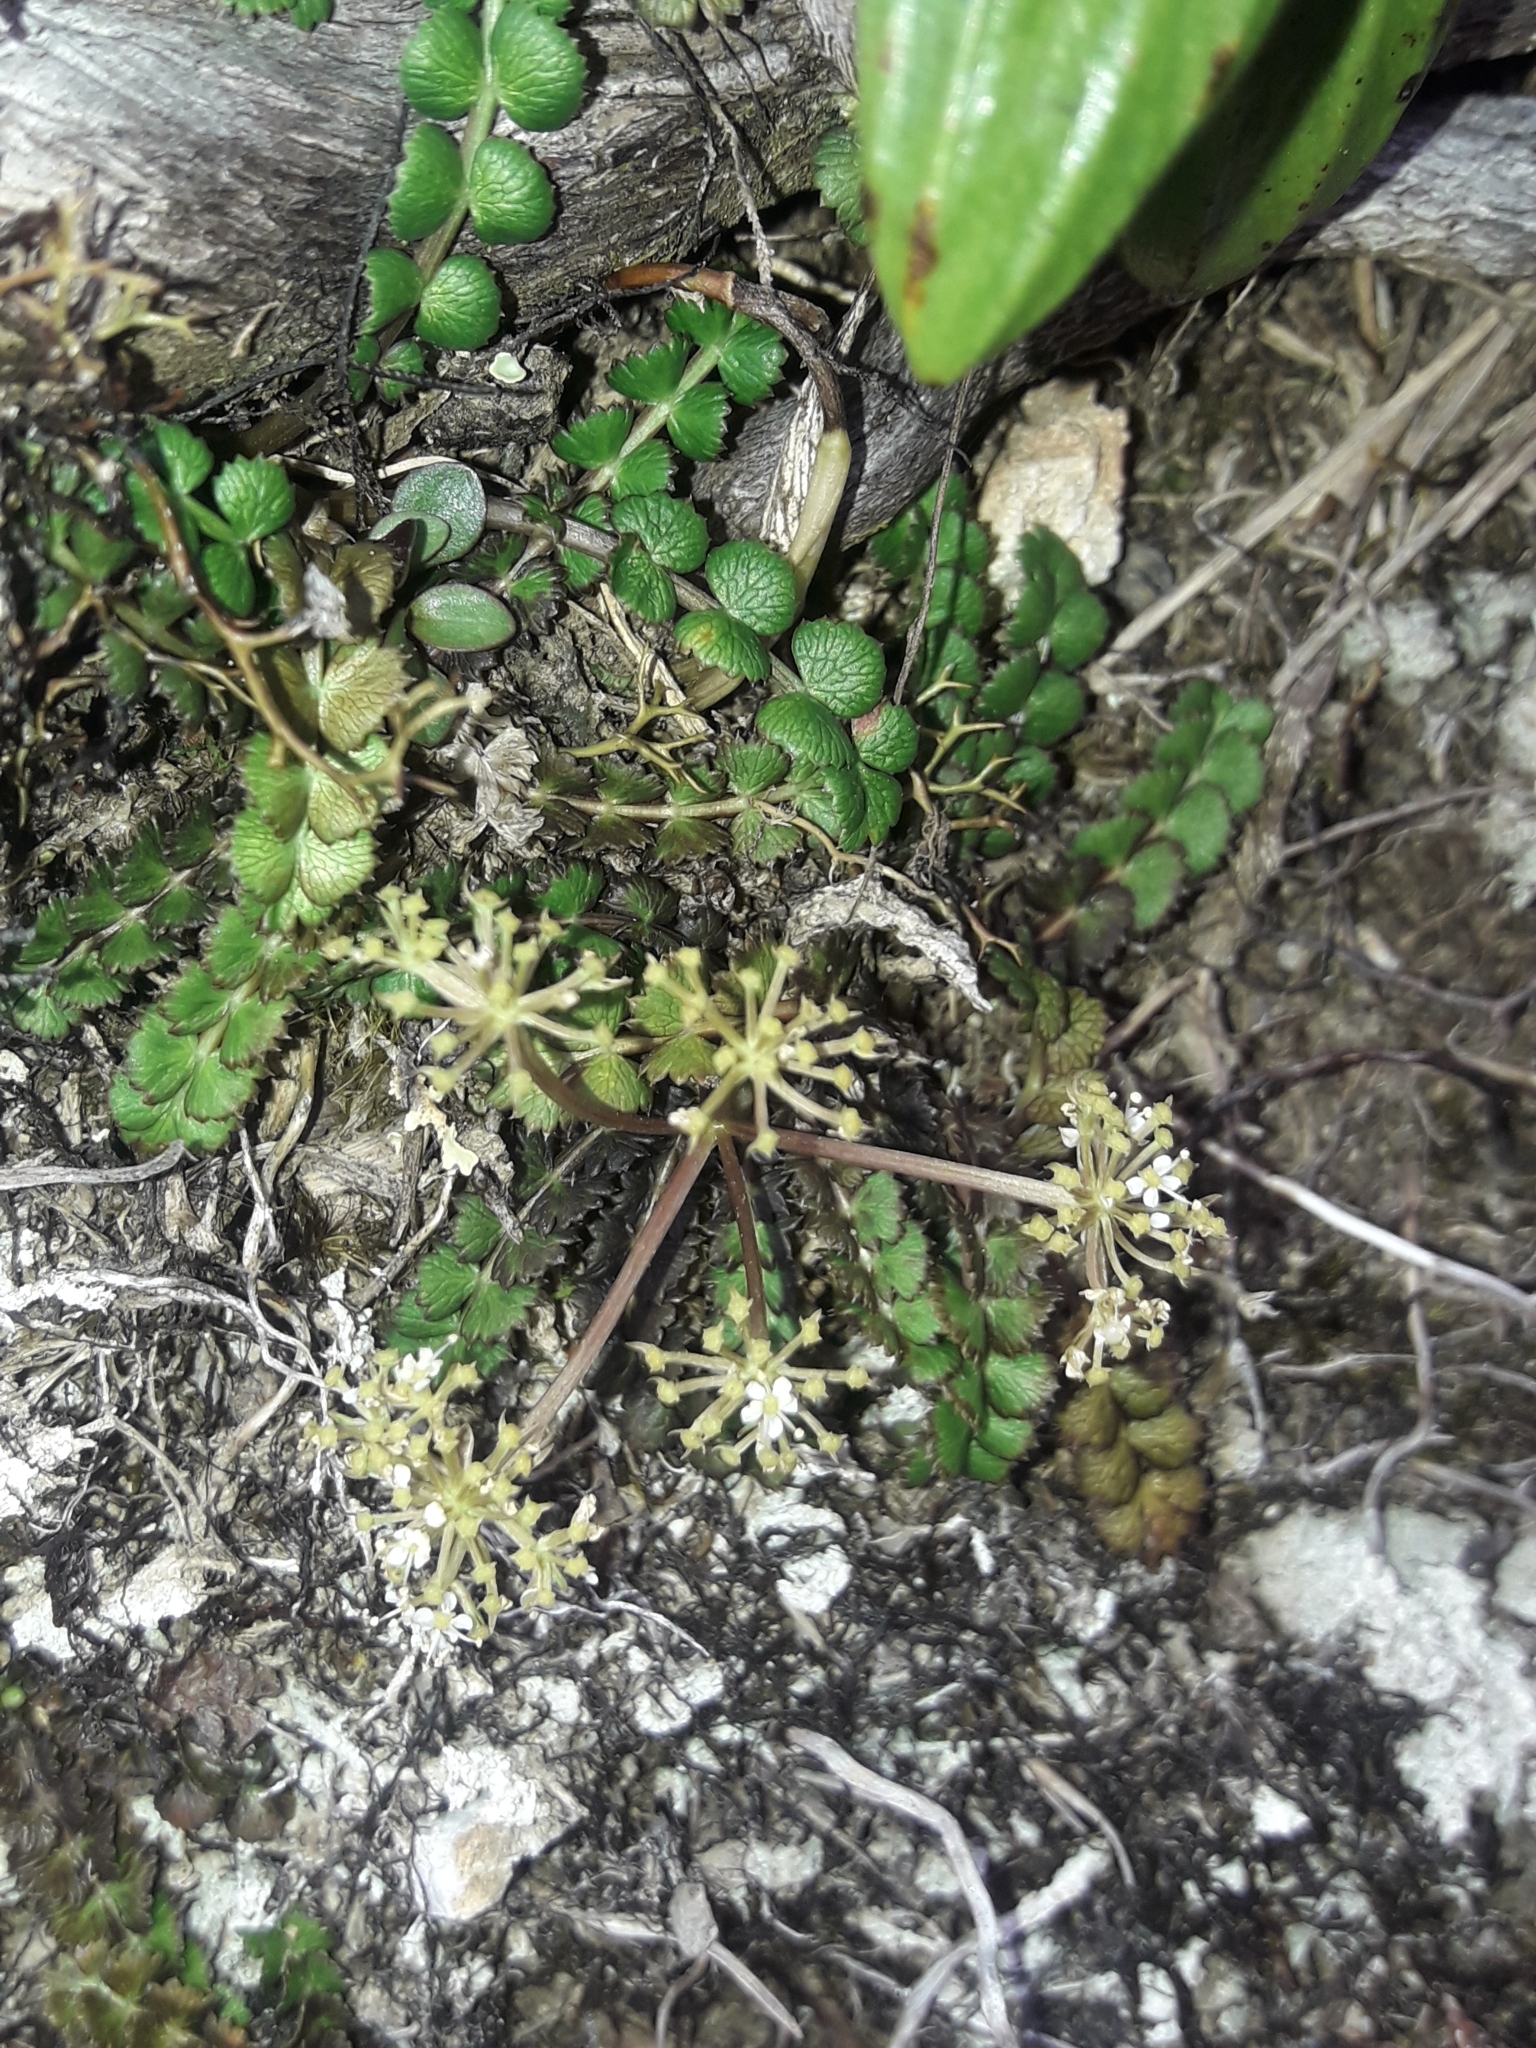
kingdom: Plantae
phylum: Tracheophyta
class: Magnoliopsida
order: Apiales
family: Apiaceae
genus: Anisotome
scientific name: Anisotome aromatica
